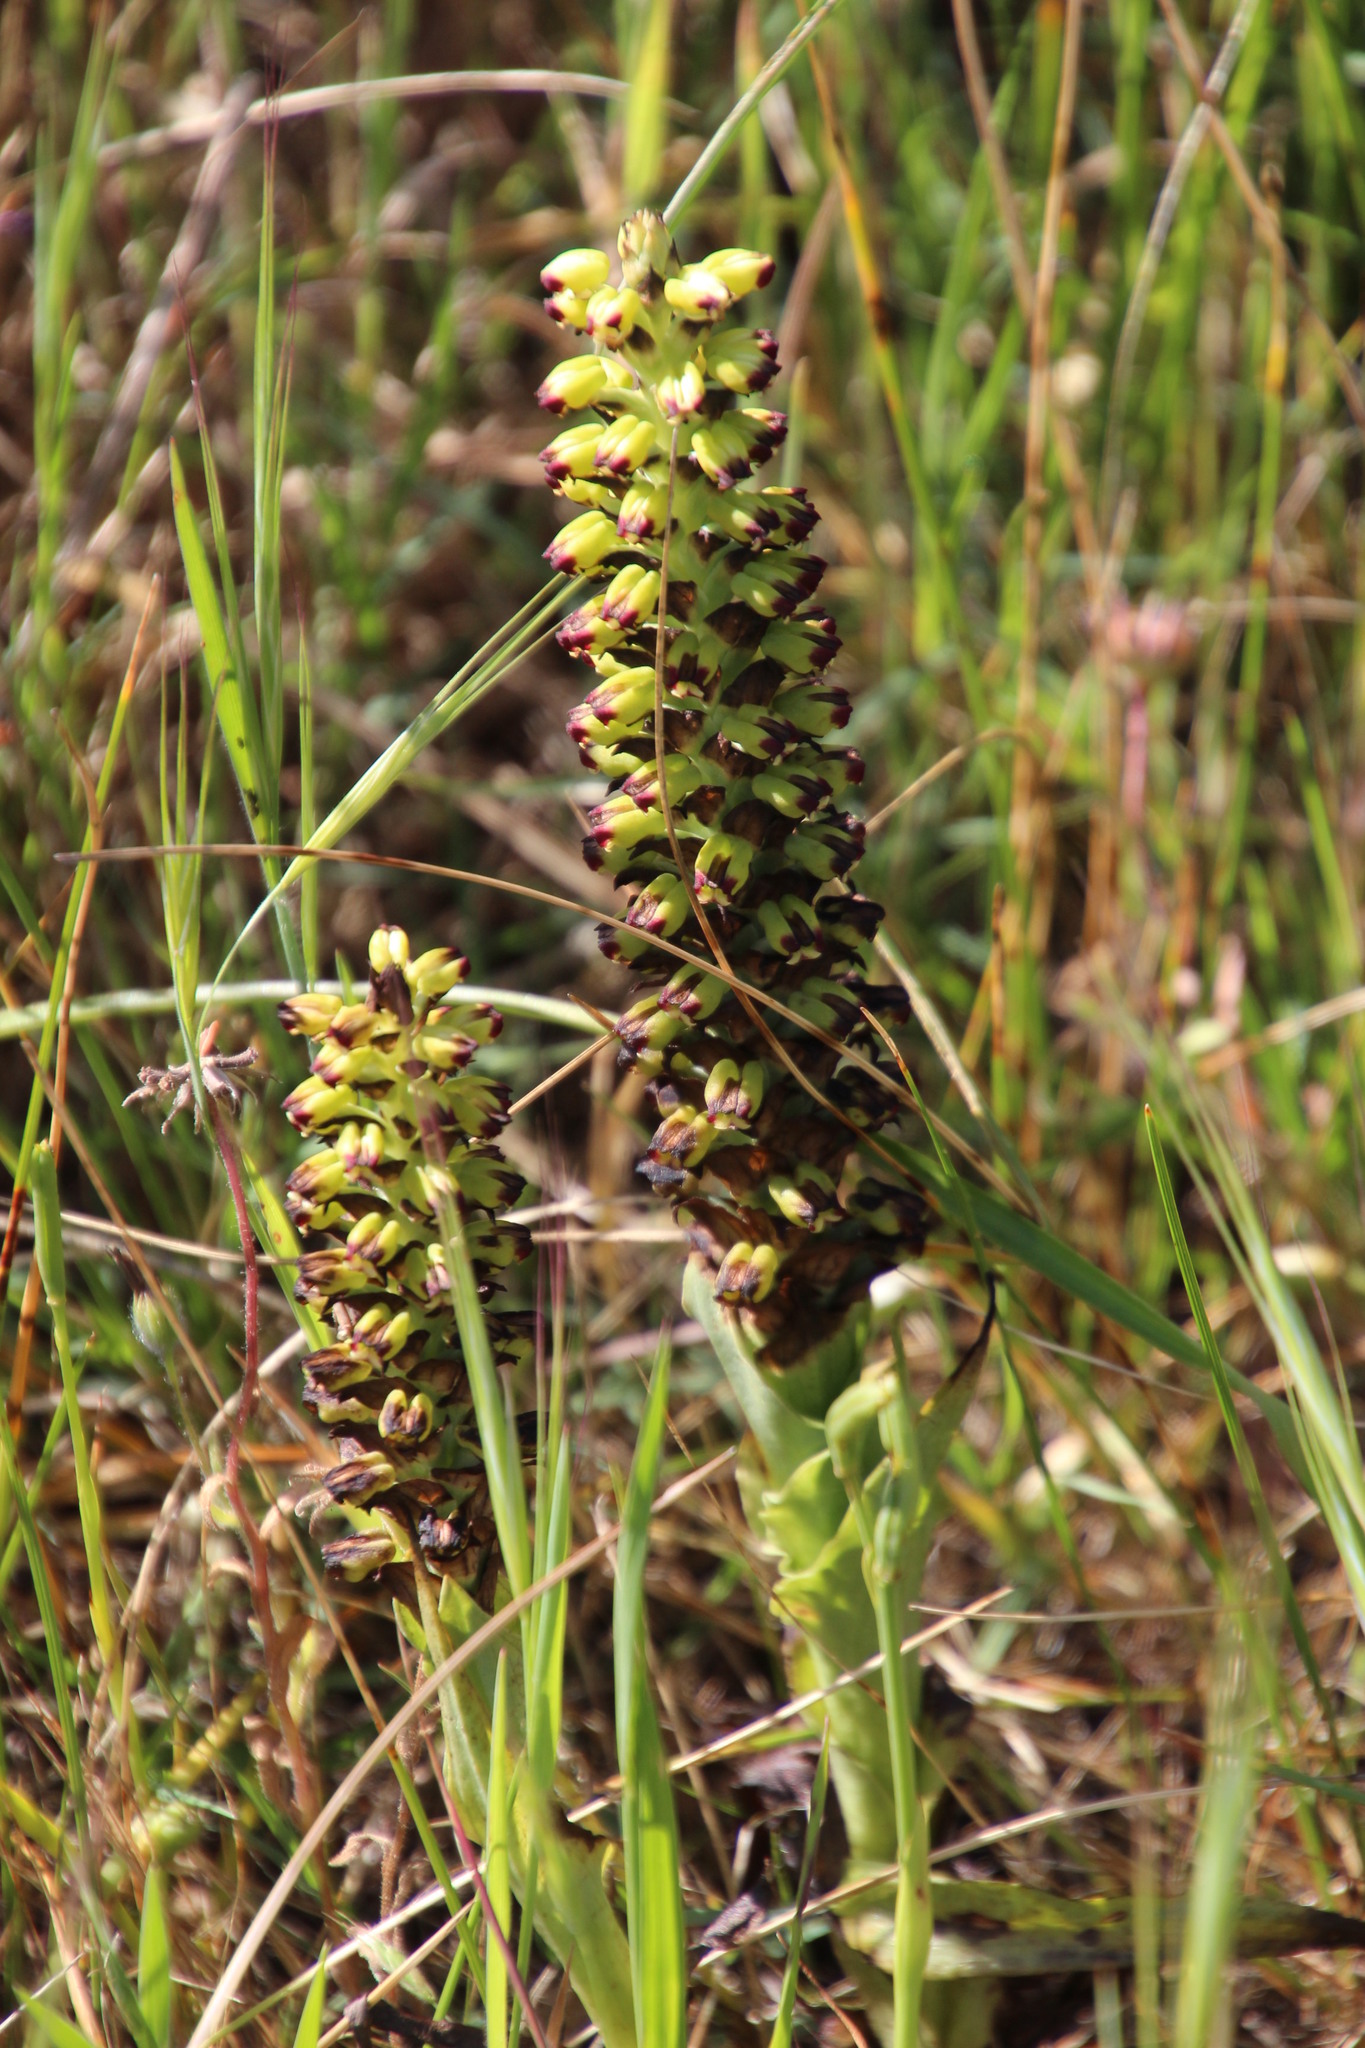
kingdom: Plantae
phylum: Tracheophyta
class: Liliopsida
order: Asparagales
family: Orchidaceae
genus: Corycium
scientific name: Corycium orobanchoides
